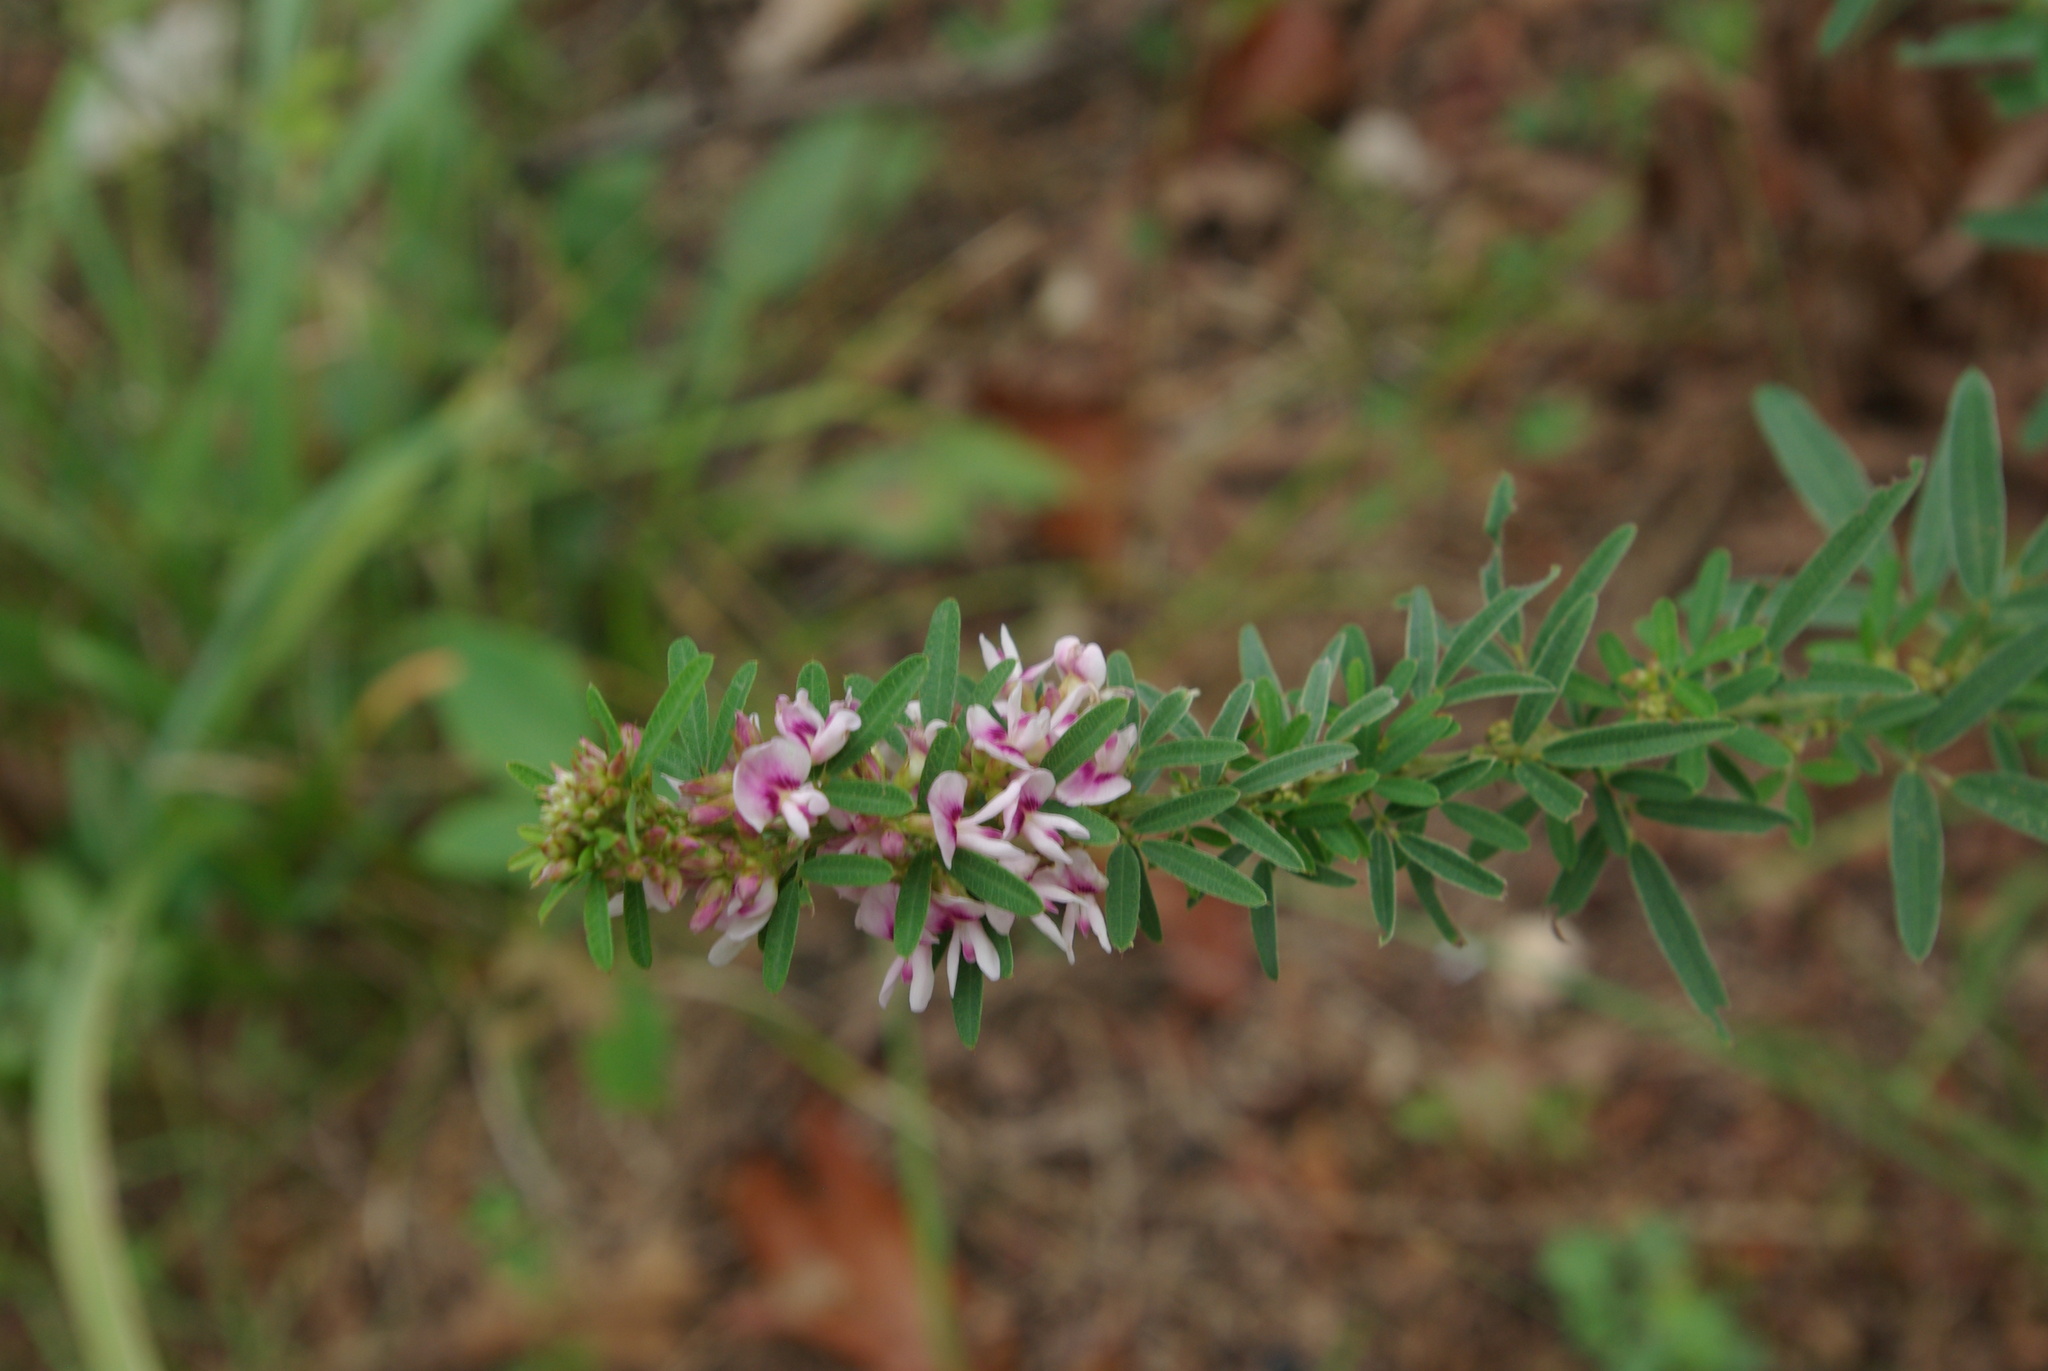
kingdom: Plantae
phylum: Tracheophyta
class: Magnoliopsida
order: Fabales
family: Fabaceae
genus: Lespedeza
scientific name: Lespedeza virginica
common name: Slender bush-clover
